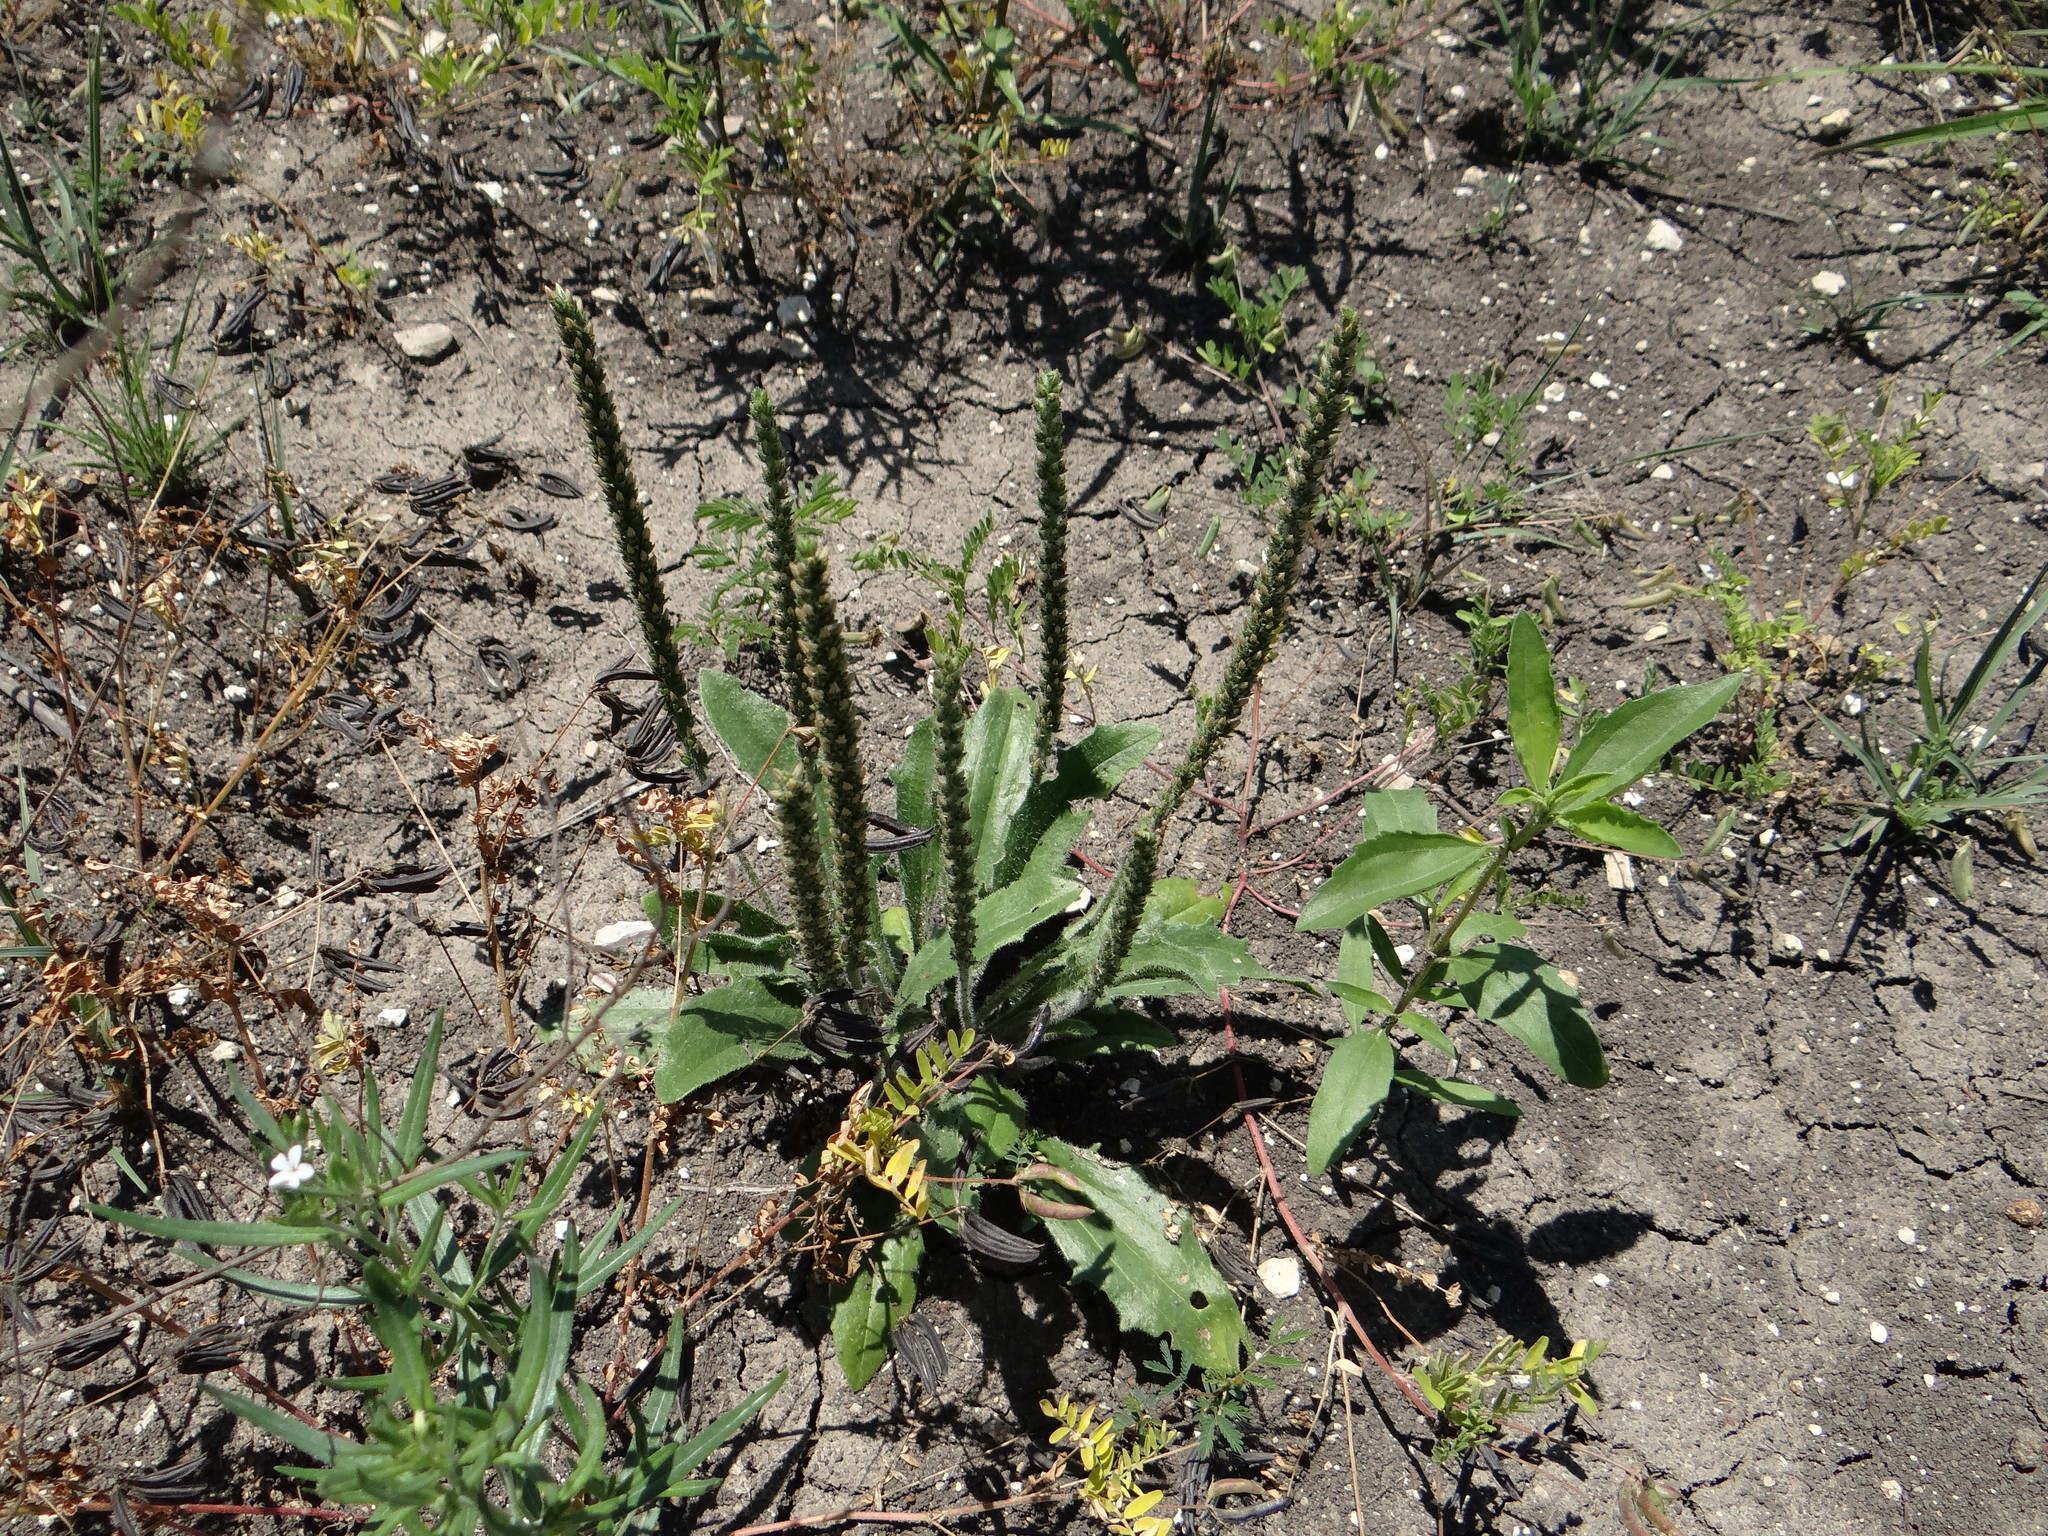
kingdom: Plantae
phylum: Tracheophyta
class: Magnoliopsida
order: Lamiales
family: Plantaginaceae
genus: Plantago
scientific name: Plantago rhodosperma
